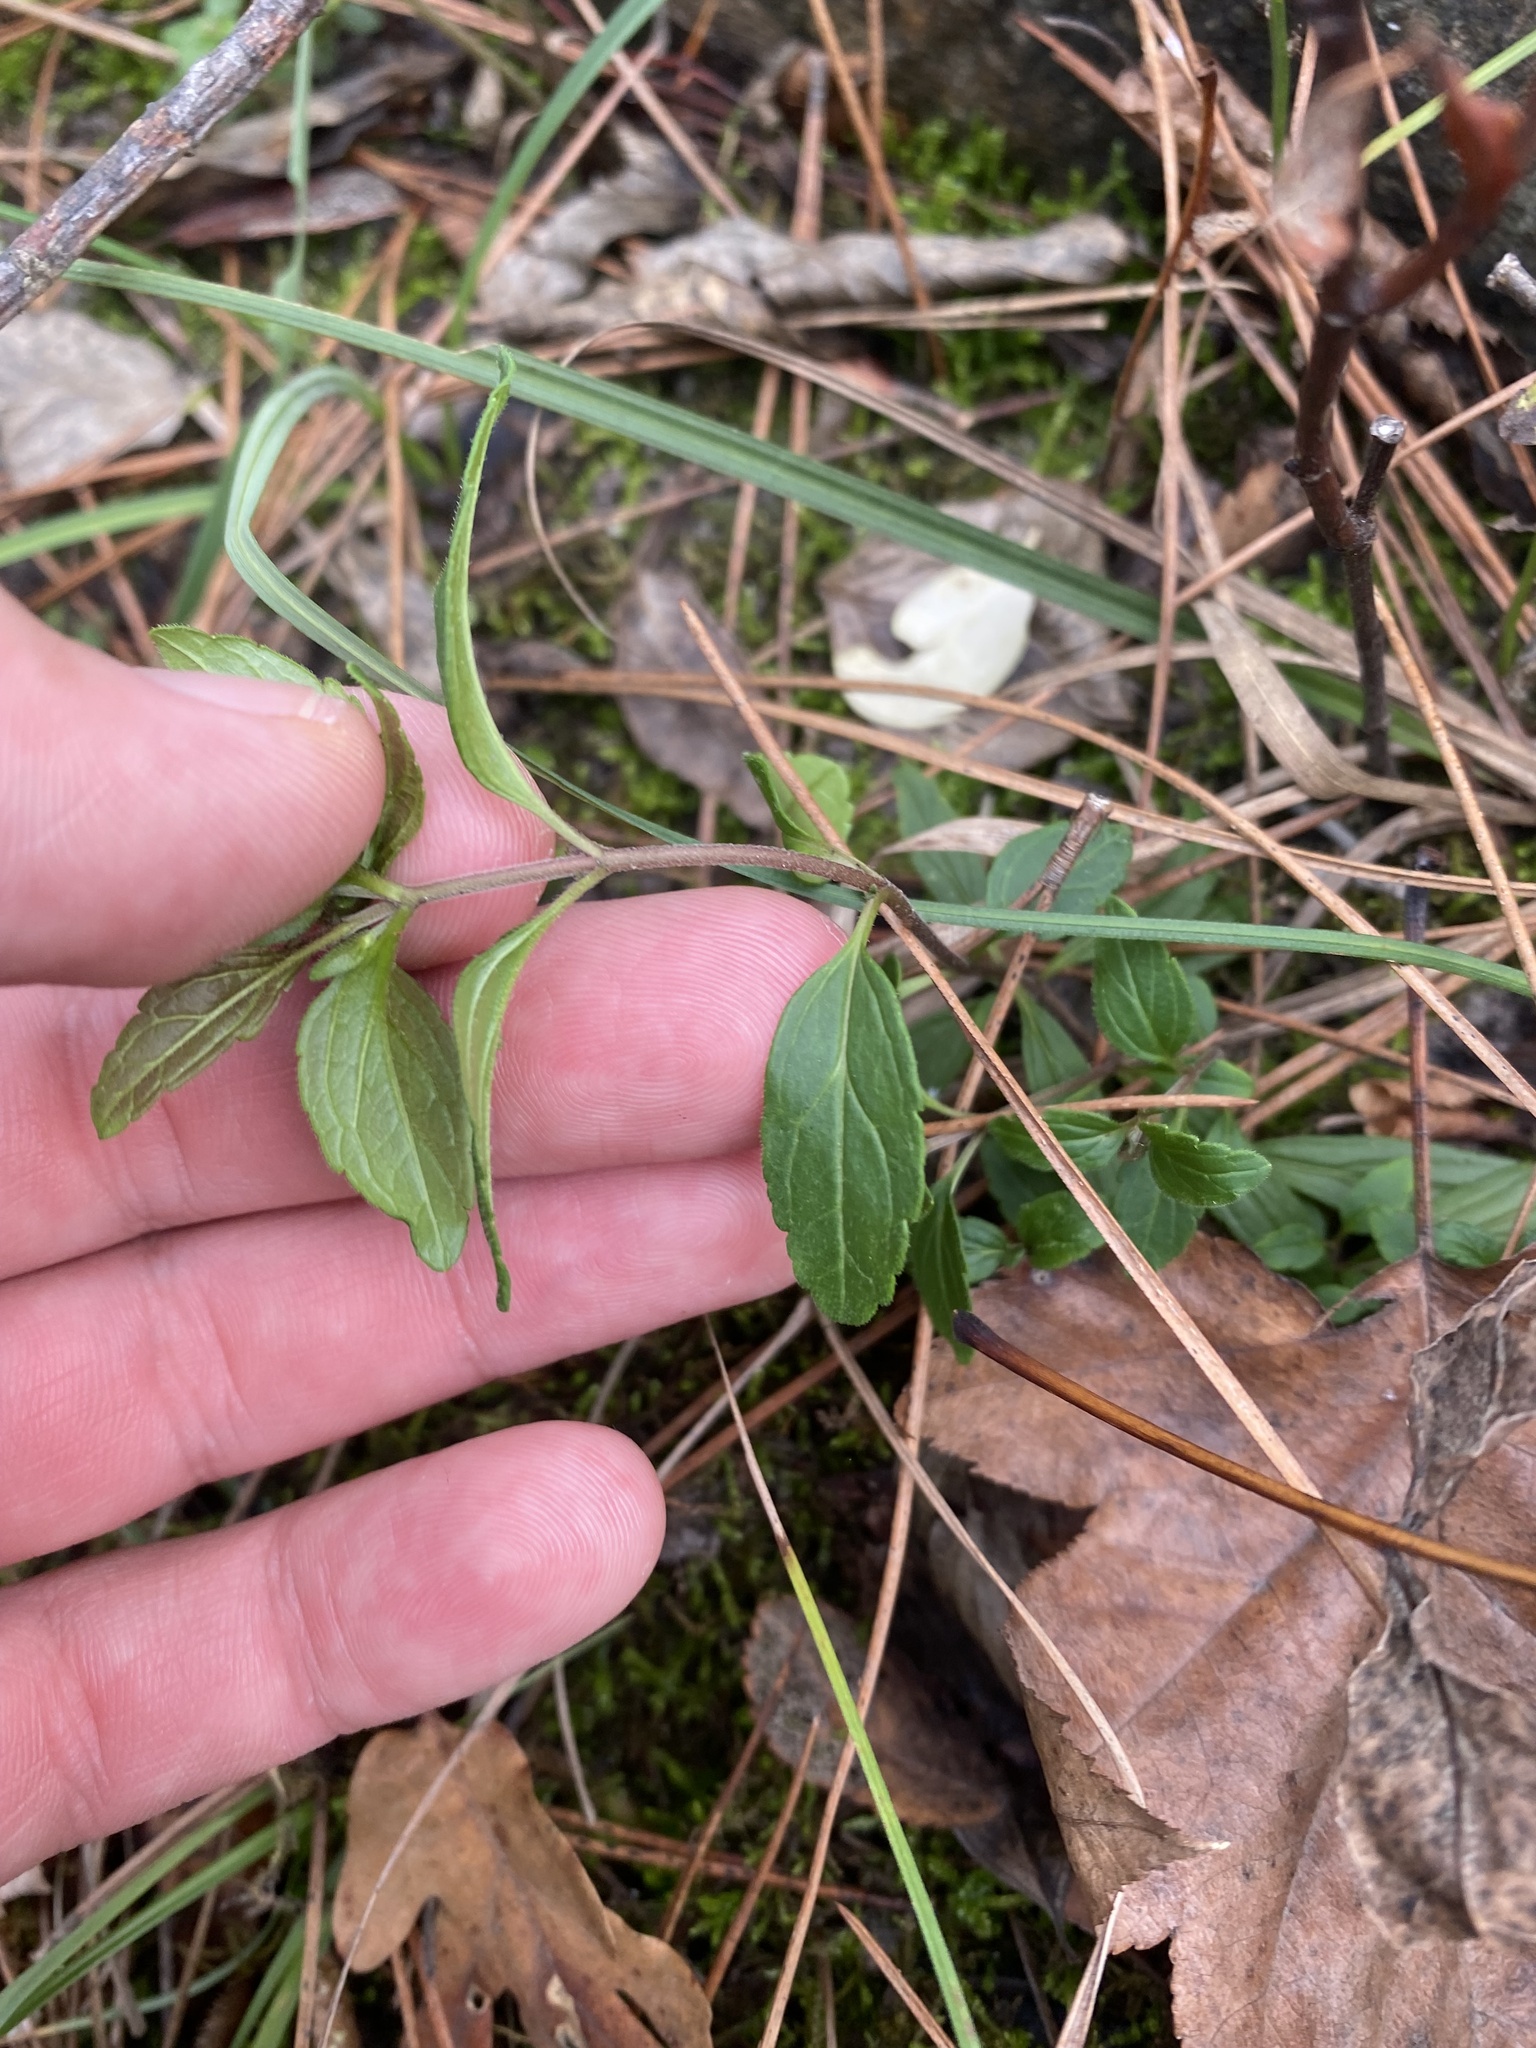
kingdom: Plantae
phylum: Tracheophyta
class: Magnoliopsida
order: Lamiales
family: Plantaginaceae
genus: Veronica
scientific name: Veronica
